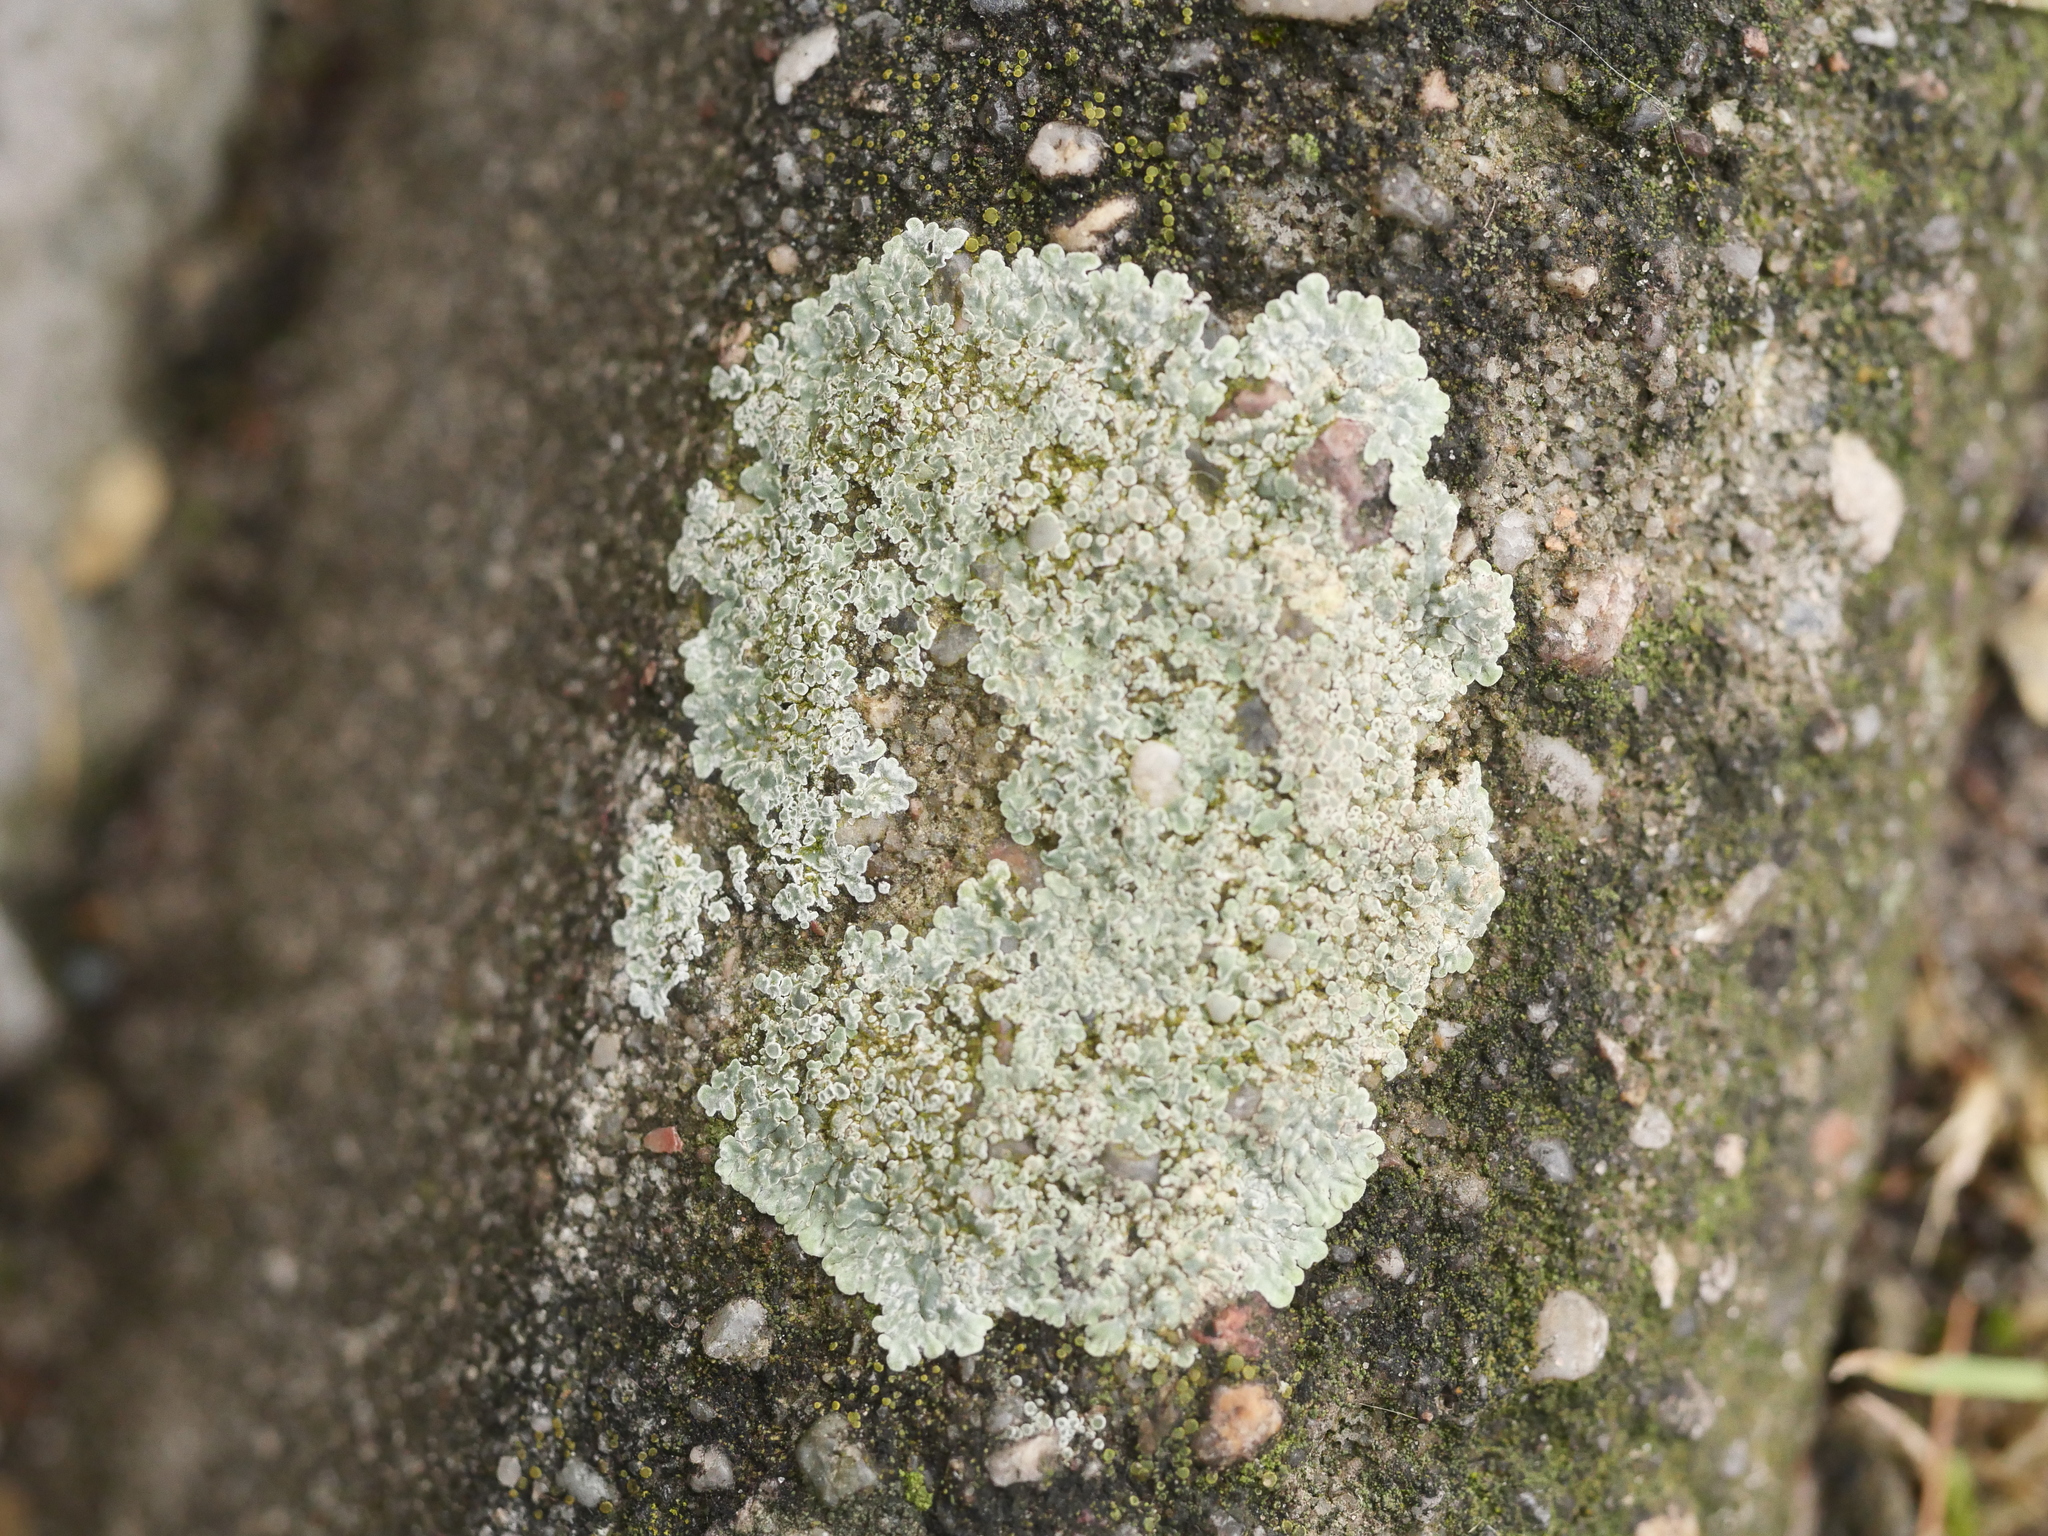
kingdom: Fungi
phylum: Ascomycota
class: Lecanoromycetes
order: Lecanorales
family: Lecanoraceae
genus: Protoparmeliopsis
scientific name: Protoparmeliopsis muralis
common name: Stonewall rim lichen
